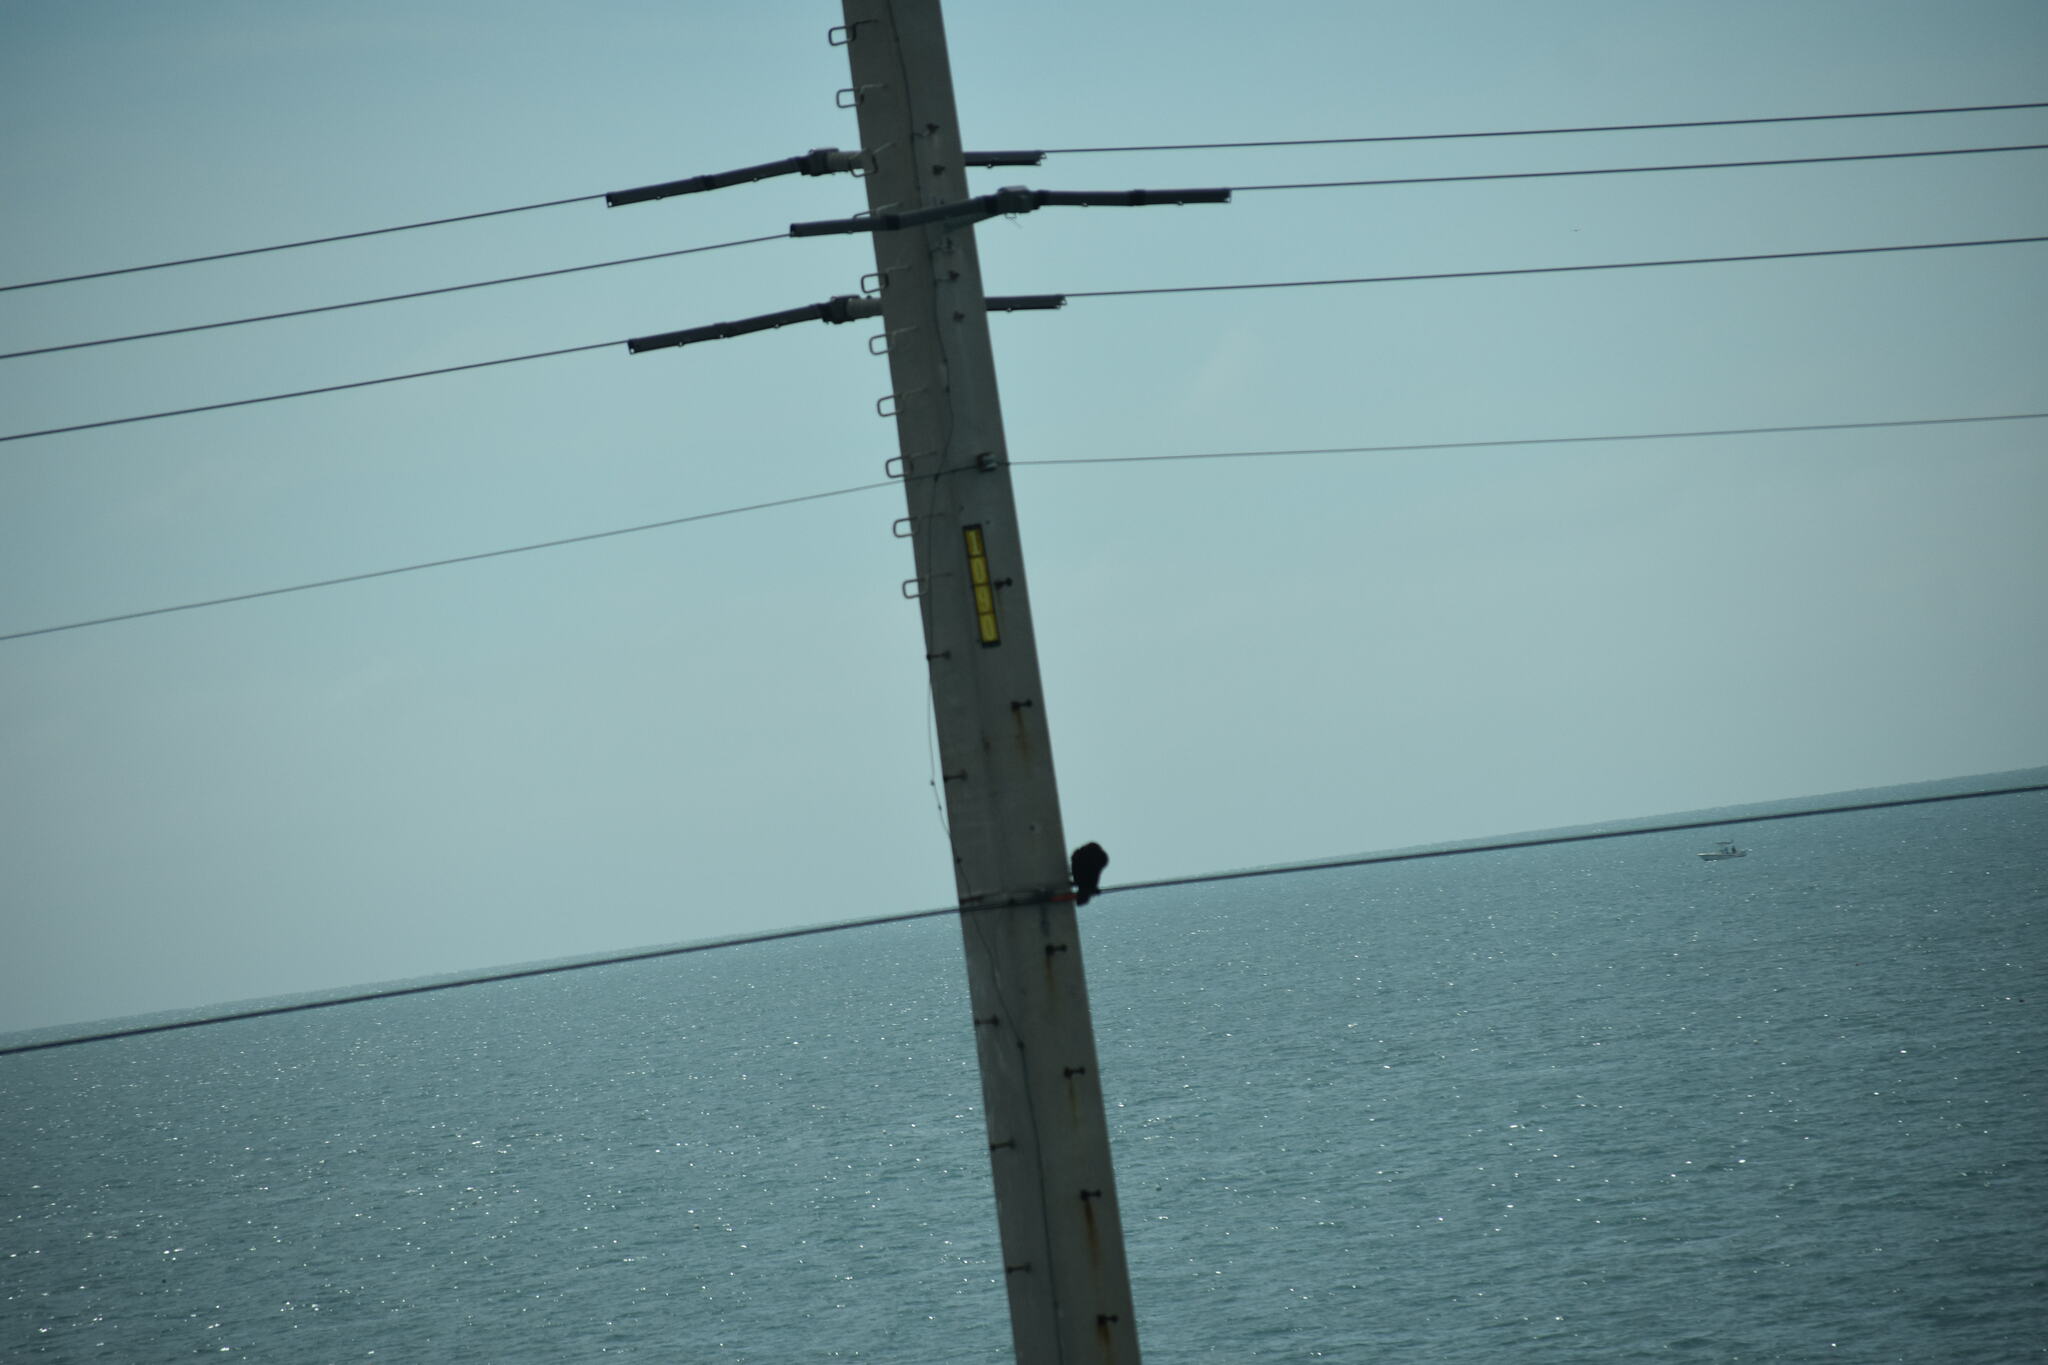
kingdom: Animalia
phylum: Chordata
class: Aves
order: Suliformes
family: Phalacrocoracidae
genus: Phalacrocorax
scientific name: Phalacrocorax auritus
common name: Double-crested cormorant
